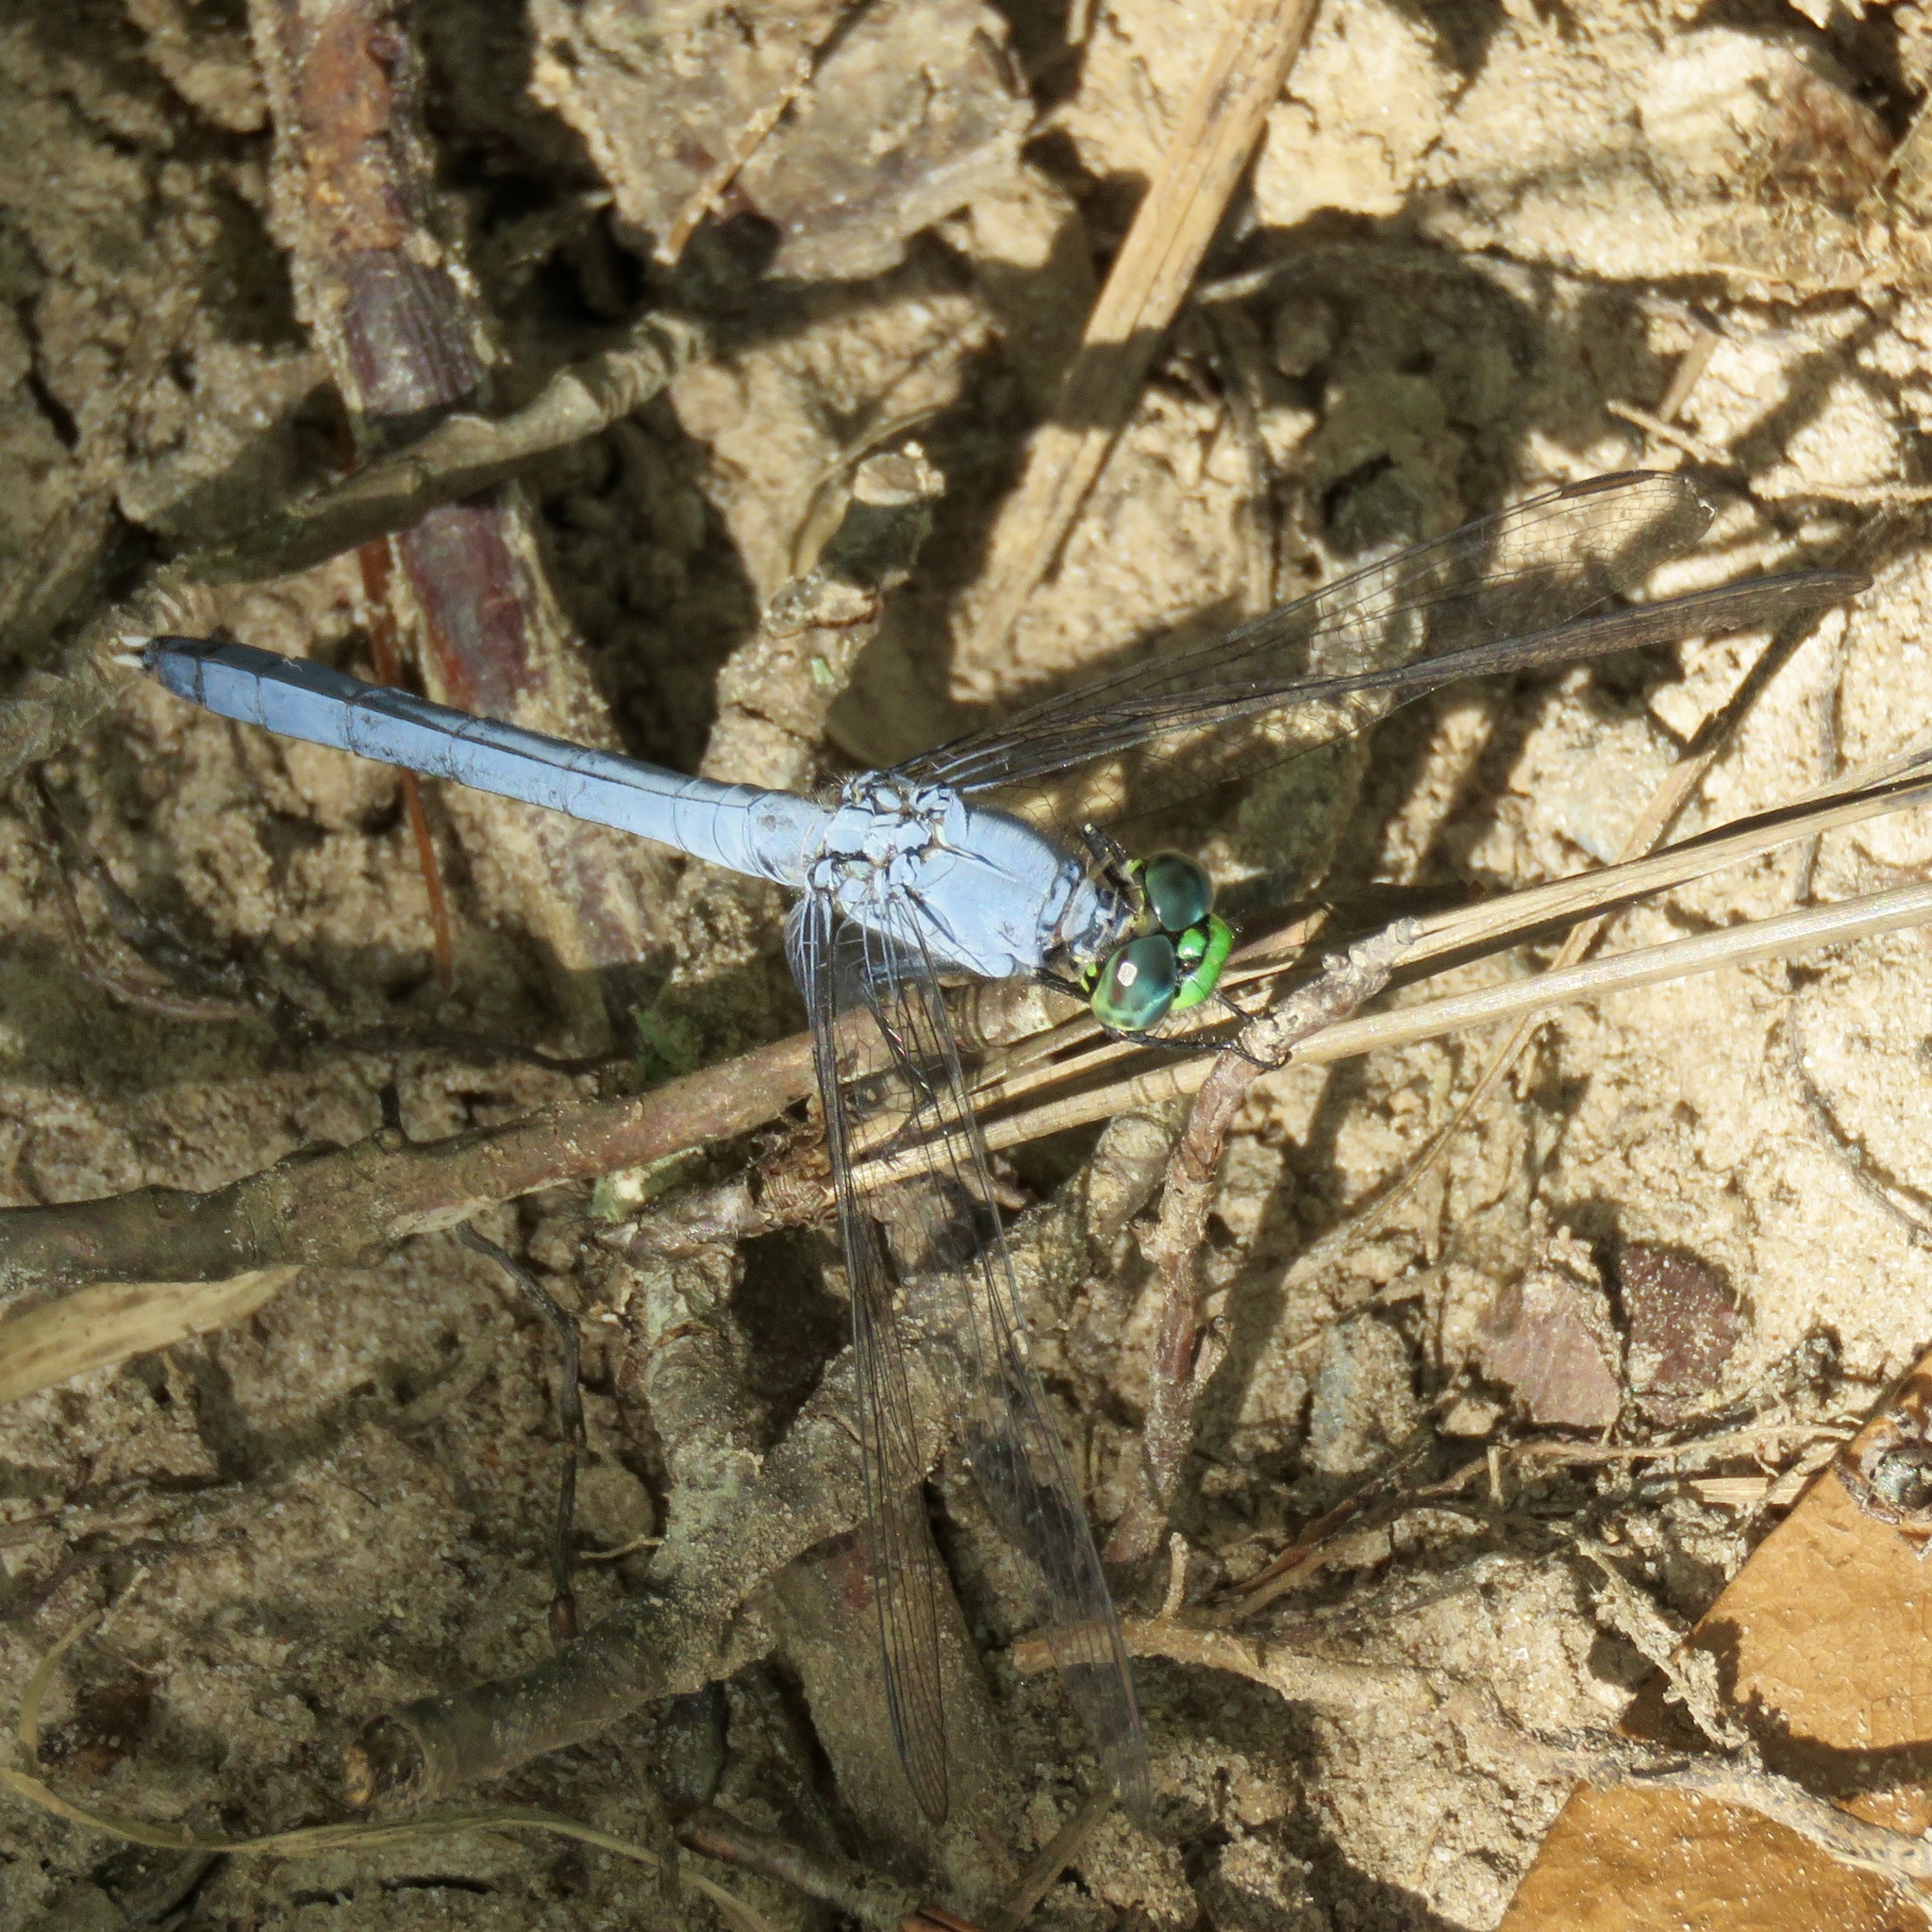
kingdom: Animalia
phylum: Arthropoda
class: Insecta
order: Odonata
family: Libellulidae
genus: Erythemis
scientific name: Erythemis simplicicollis
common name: Eastern pondhawk
